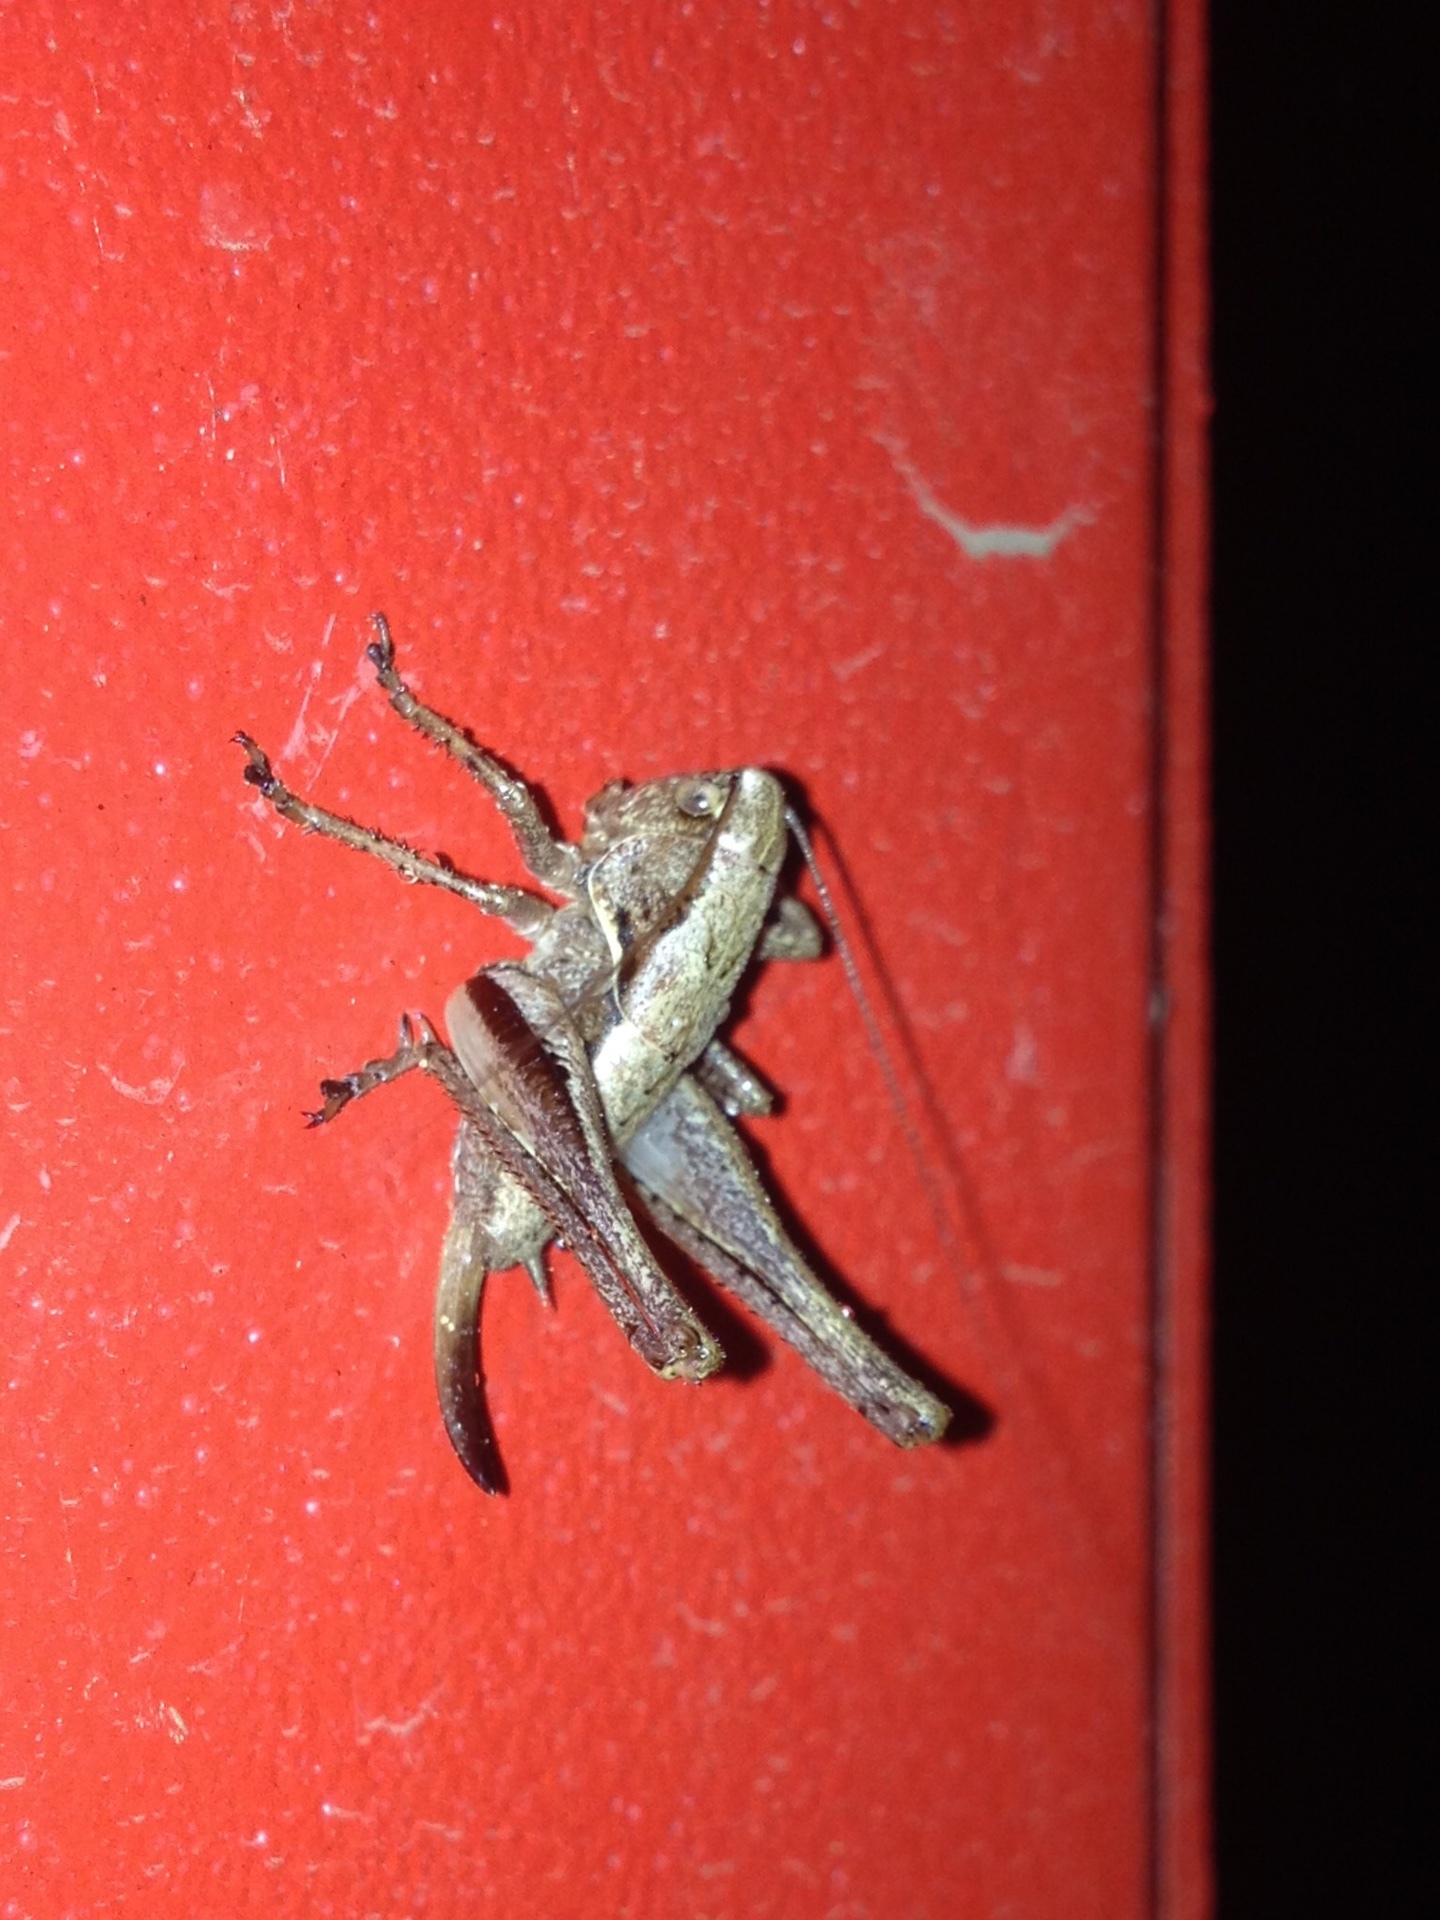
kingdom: Animalia
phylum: Arthropoda
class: Insecta
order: Orthoptera
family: Tettigoniidae
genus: Pholidoptera
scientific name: Pholidoptera griseoaptera
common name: Dark bush-cricket
